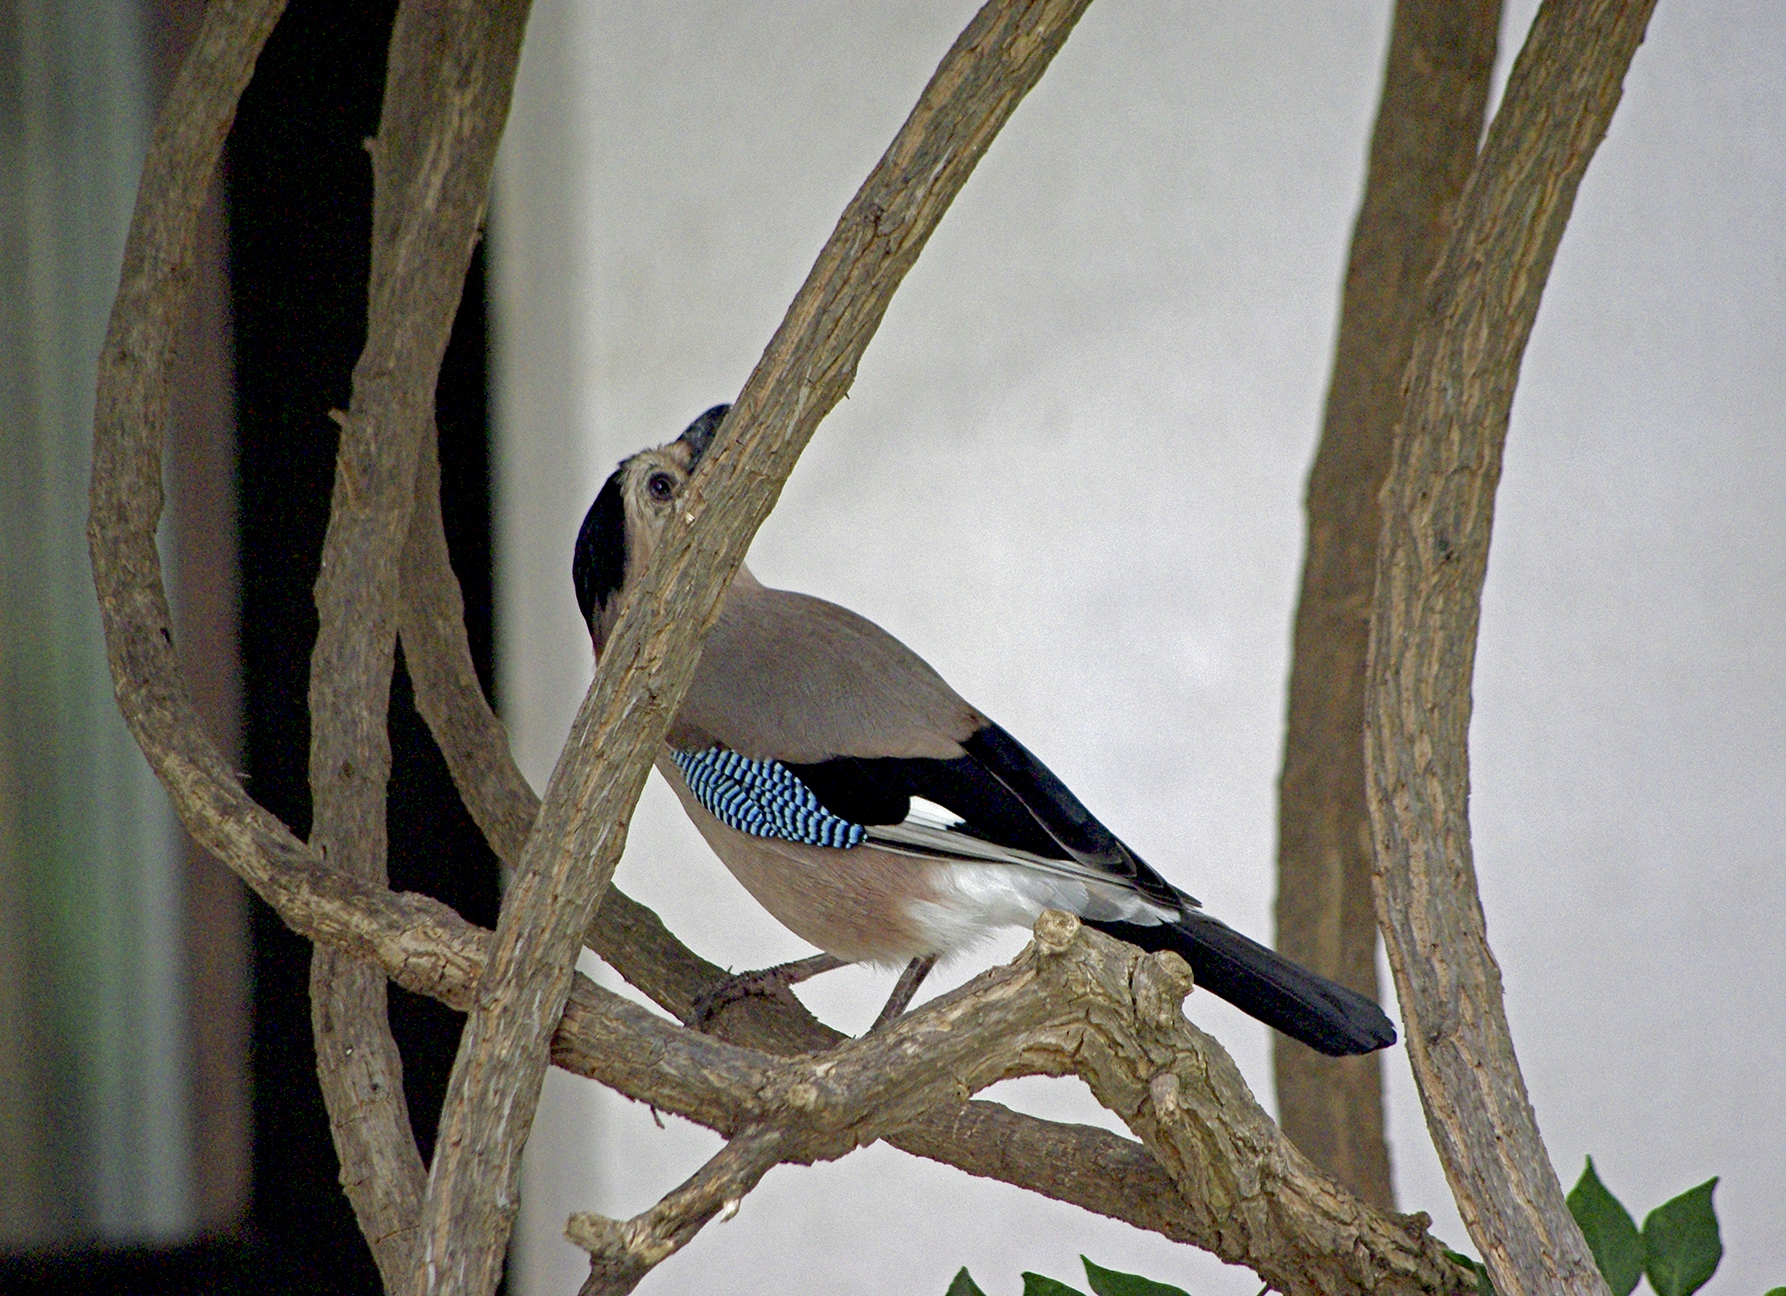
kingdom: Animalia
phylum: Chordata
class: Aves
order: Passeriformes
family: Corvidae
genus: Garrulus
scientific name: Garrulus glandarius
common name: Eurasian jay
